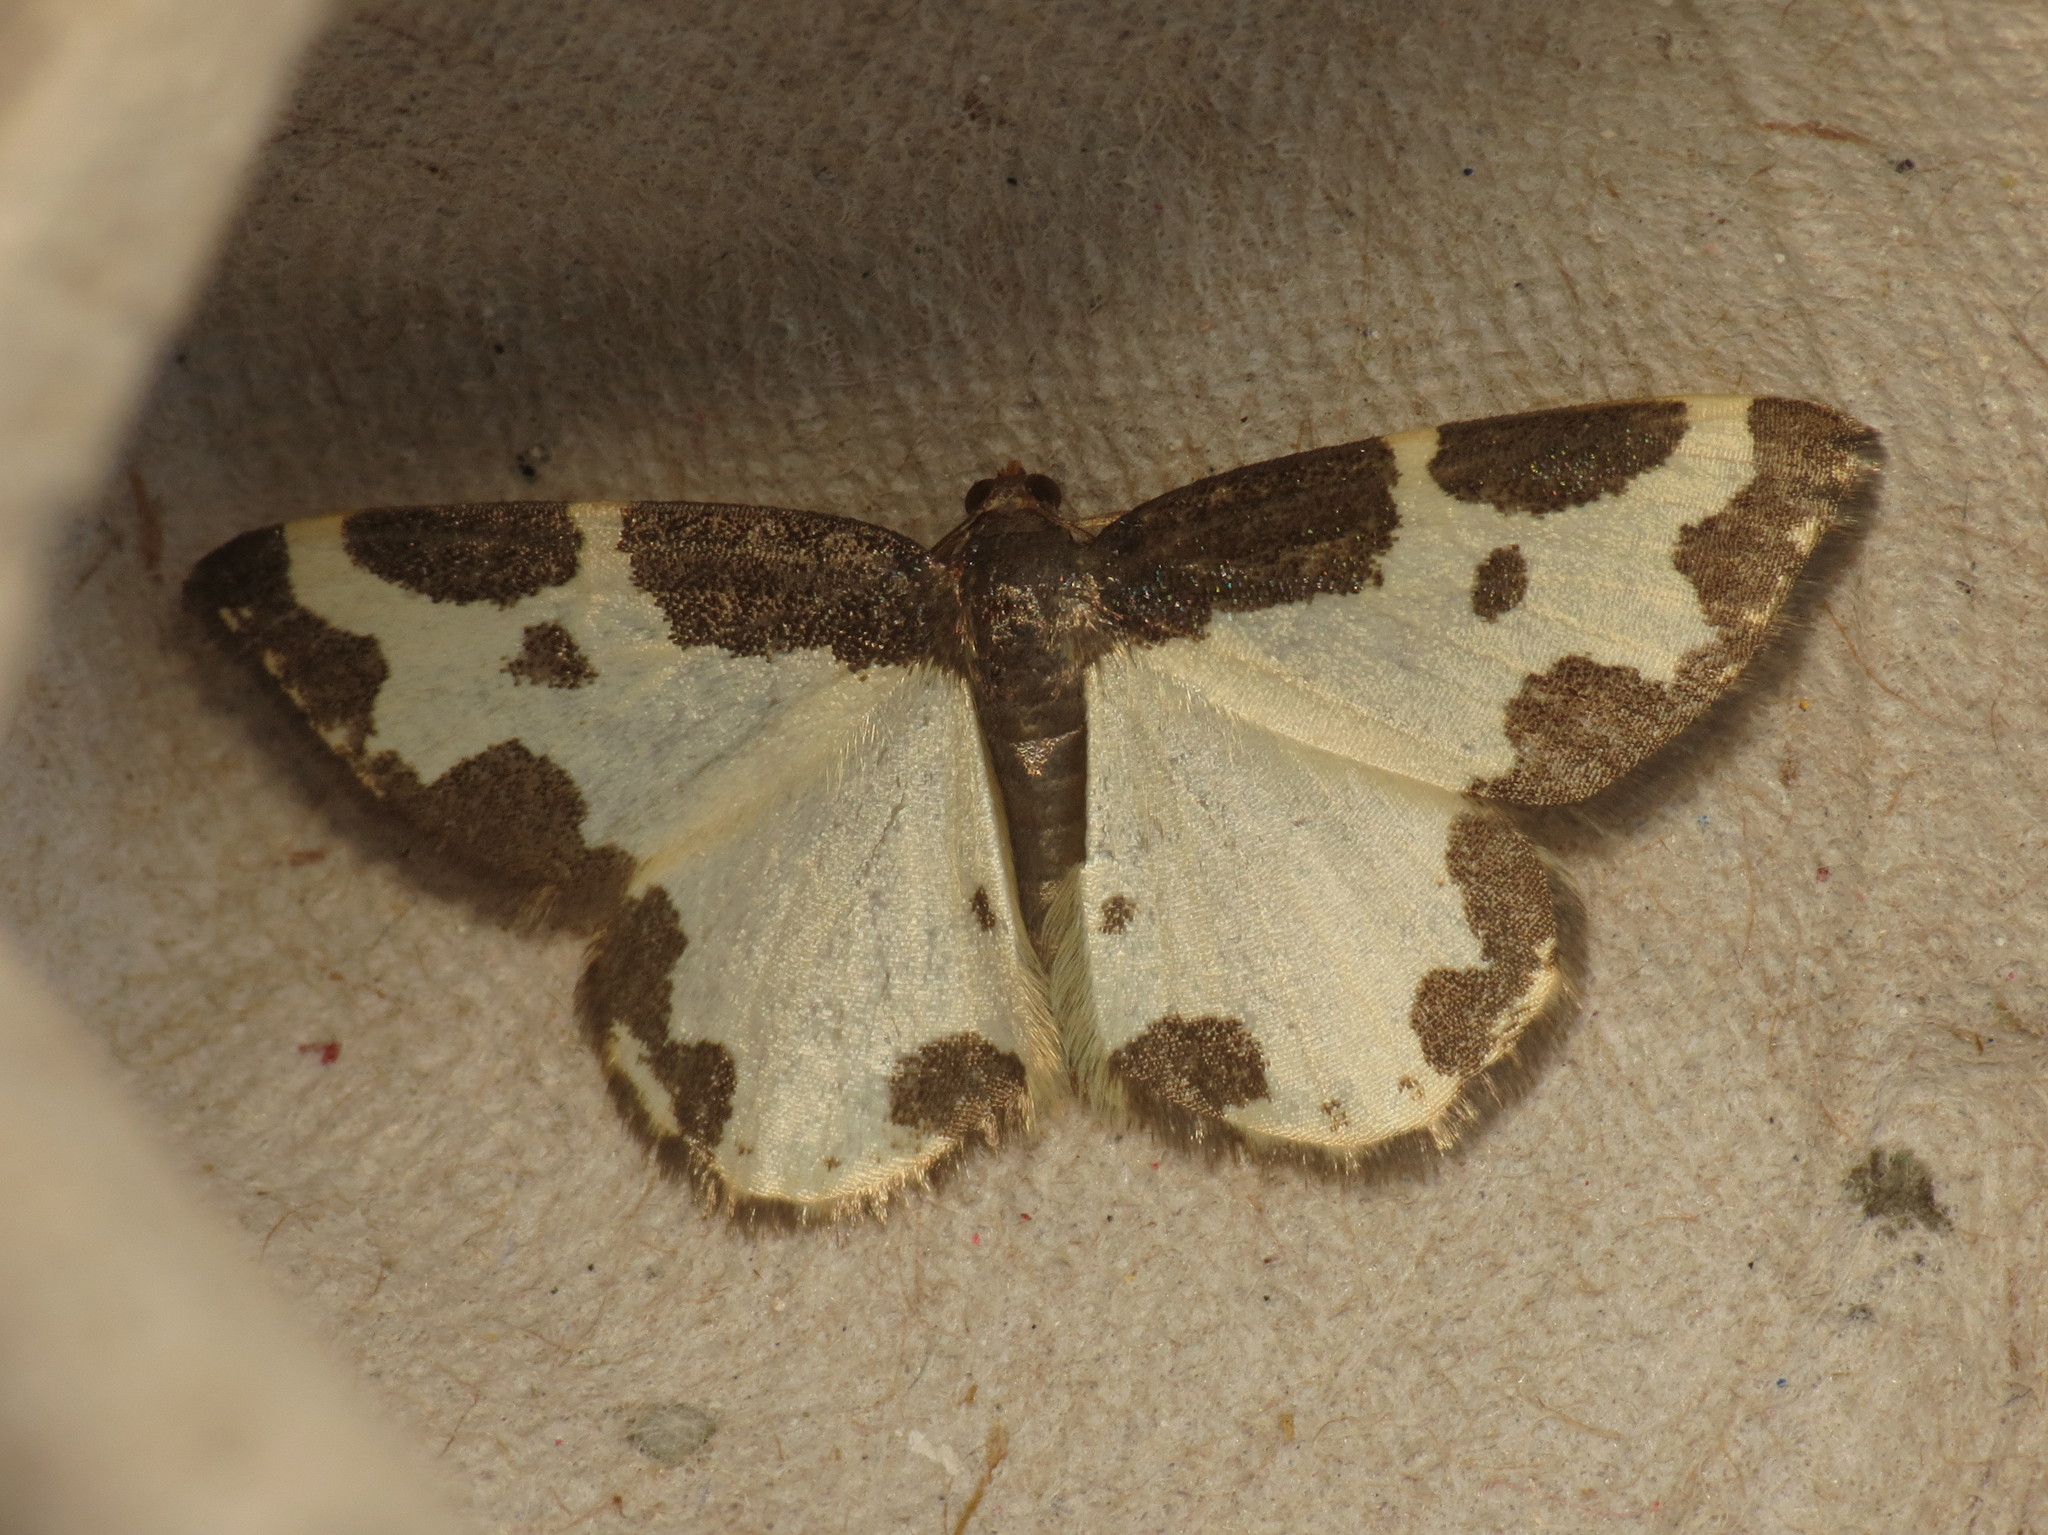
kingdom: Animalia
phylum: Arthropoda
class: Insecta
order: Lepidoptera
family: Geometridae
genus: Lomaspilis
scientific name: Lomaspilis marginata
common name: Clouded border
